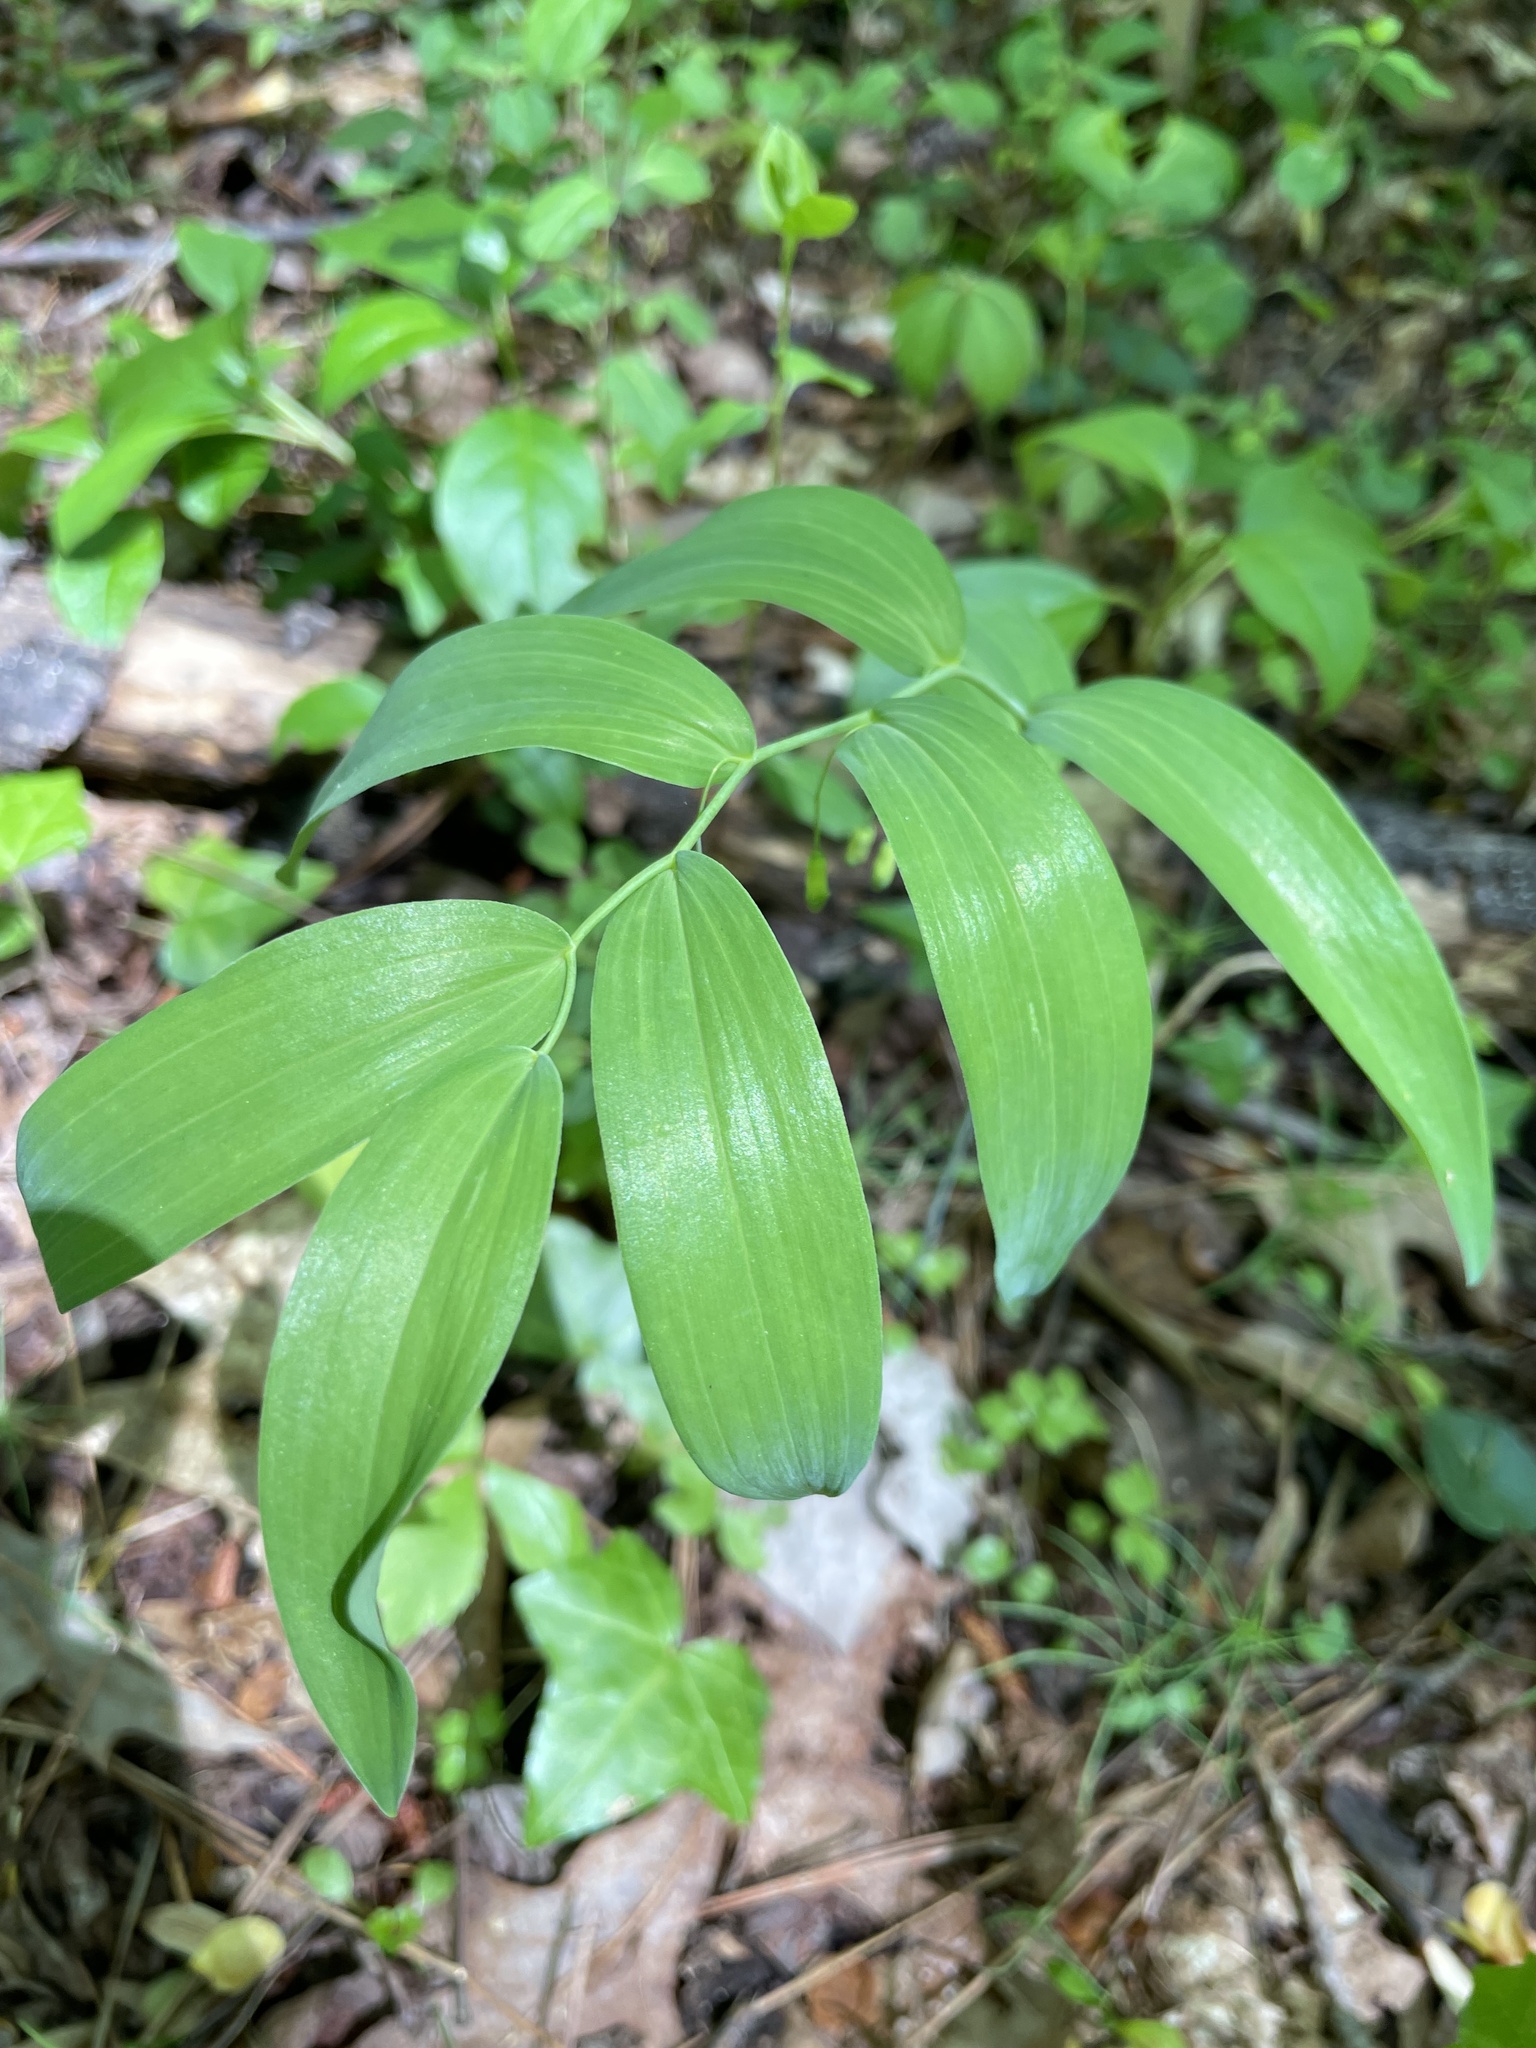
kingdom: Plantae
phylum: Tracheophyta
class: Liliopsida
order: Asparagales
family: Asparagaceae
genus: Polygonatum
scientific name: Polygonatum biflorum
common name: American solomon's-seal
